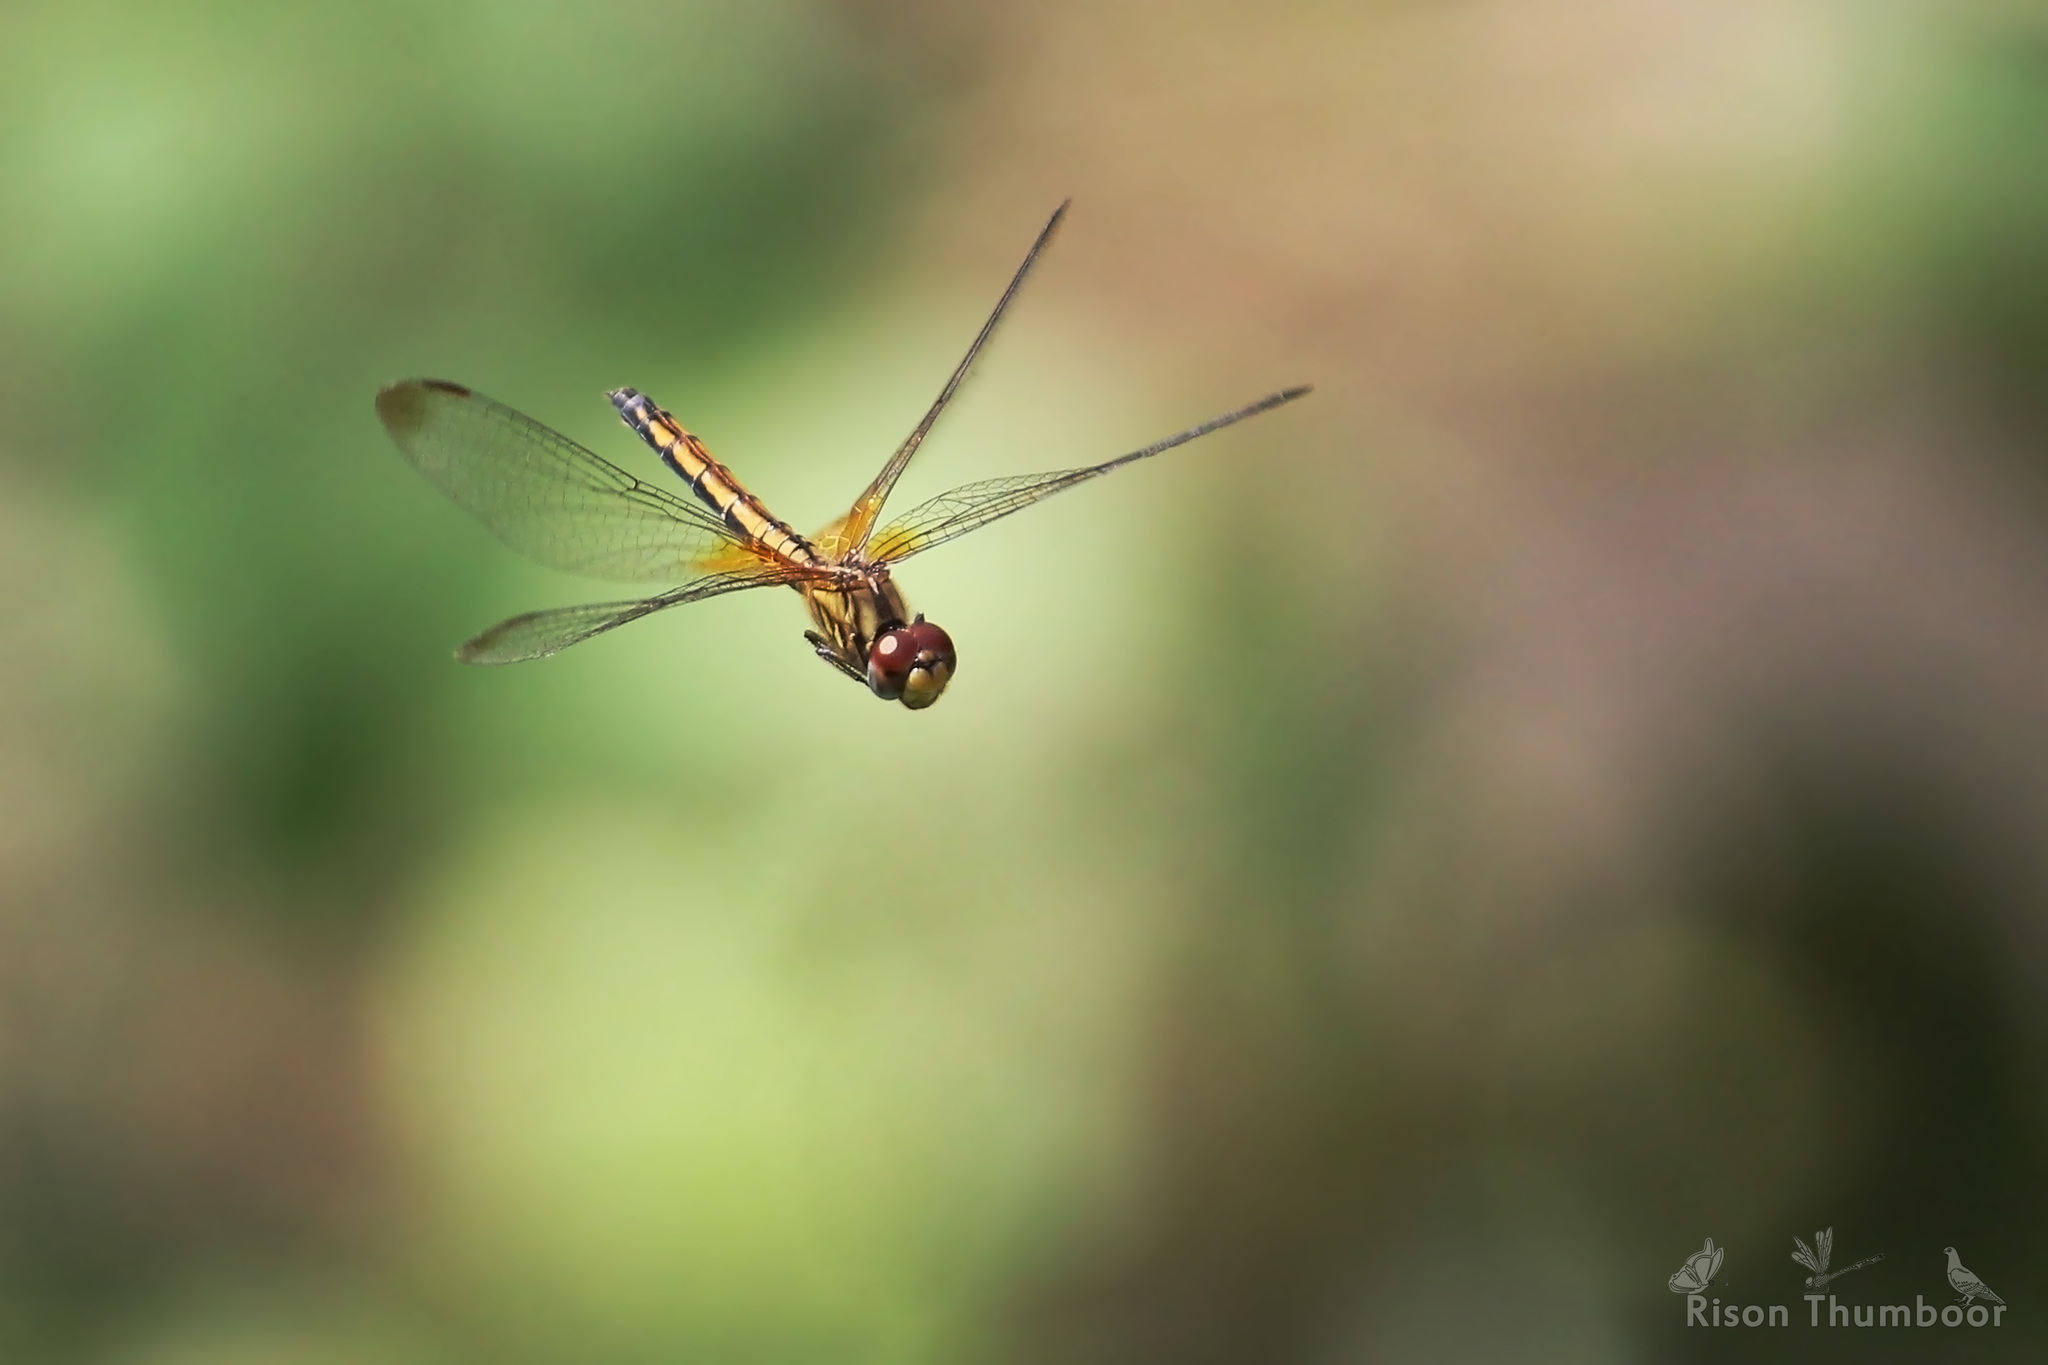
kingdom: Animalia
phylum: Arthropoda
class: Insecta
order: Odonata
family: Libellulidae
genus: Trithemis
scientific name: Trithemis aurora
